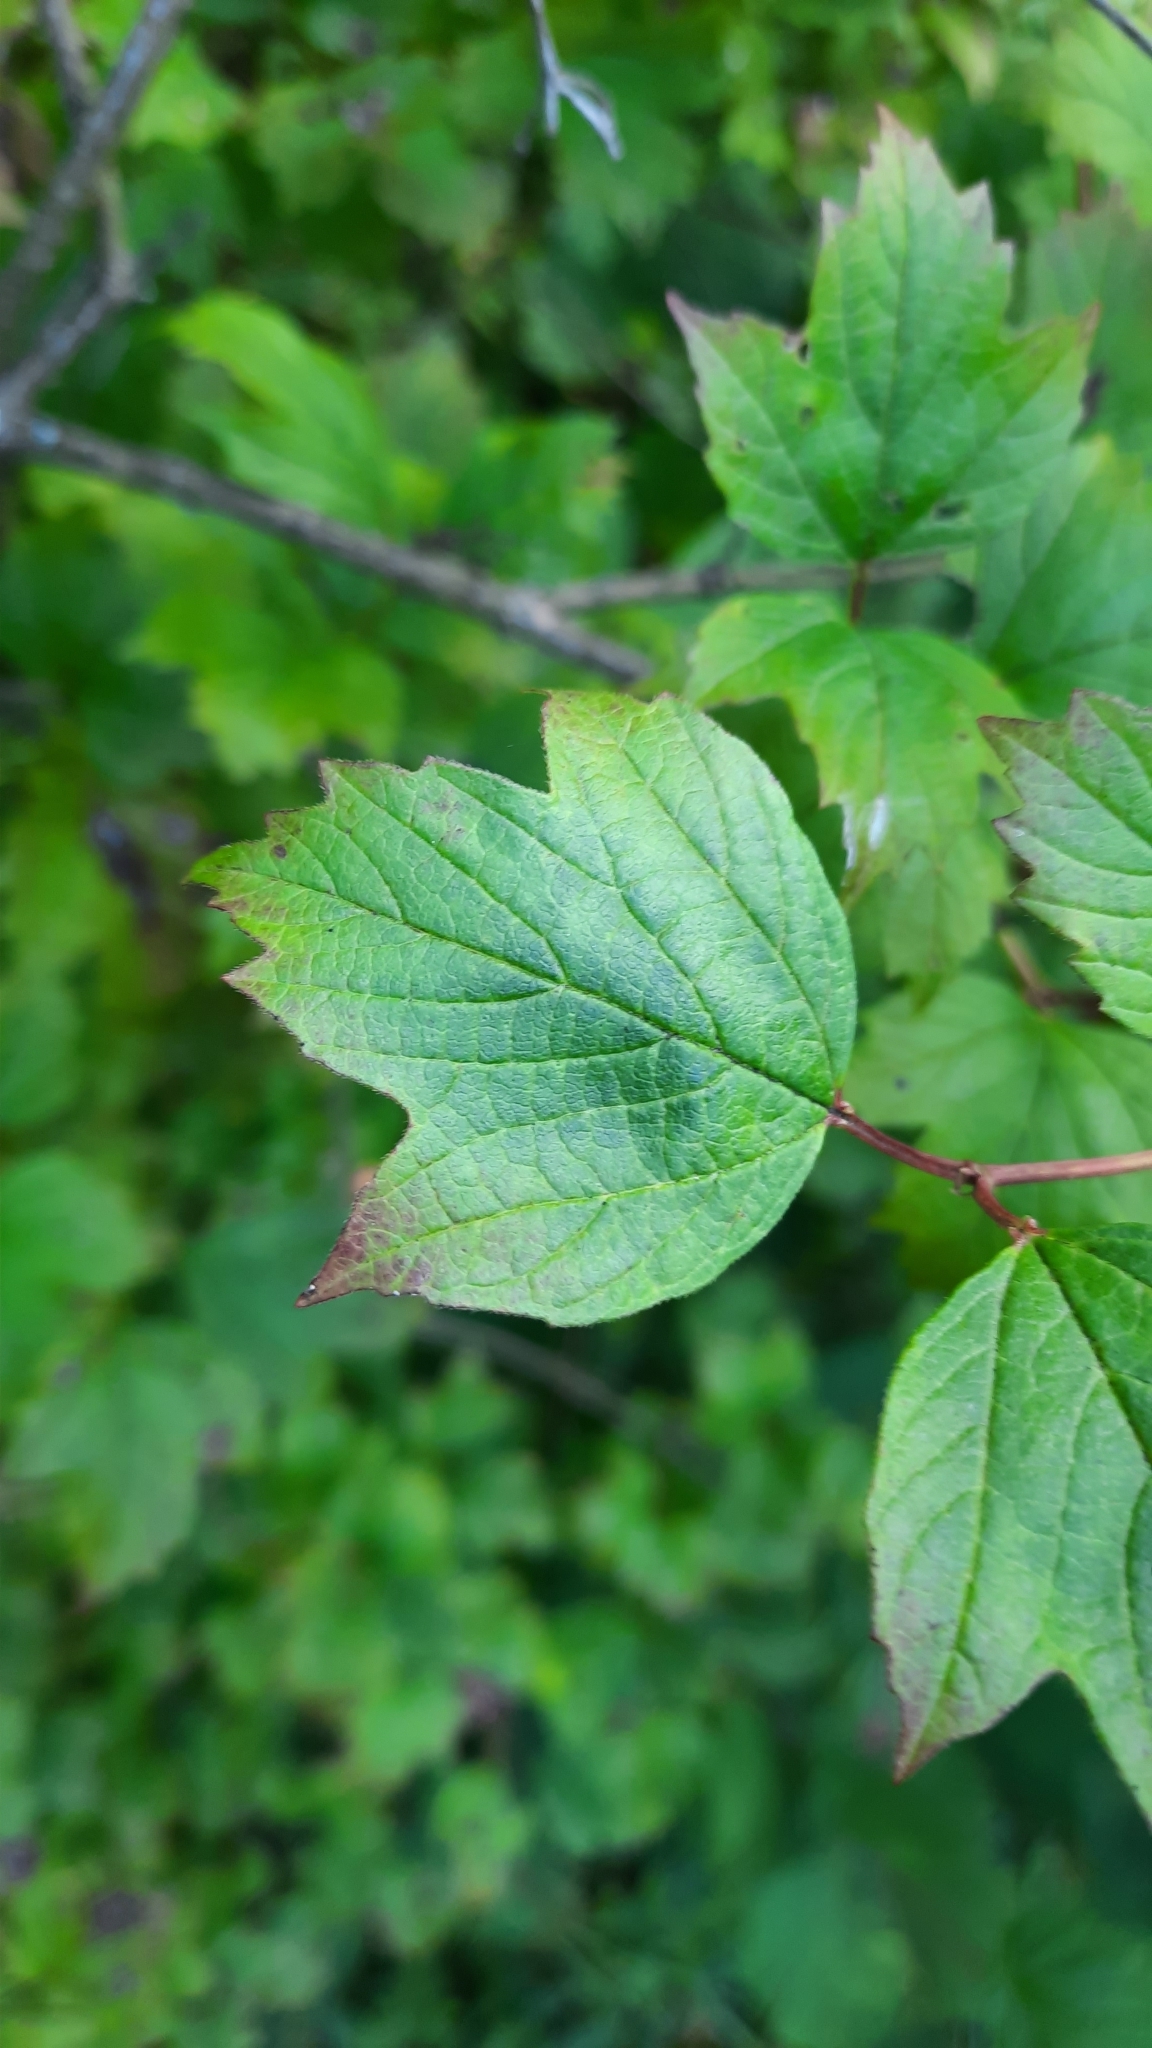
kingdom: Plantae
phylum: Tracheophyta
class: Magnoliopsida
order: Dipsacales
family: Viburnaceae
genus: Viburnum
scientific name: Viburnum opulus
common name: Guelder-rose
